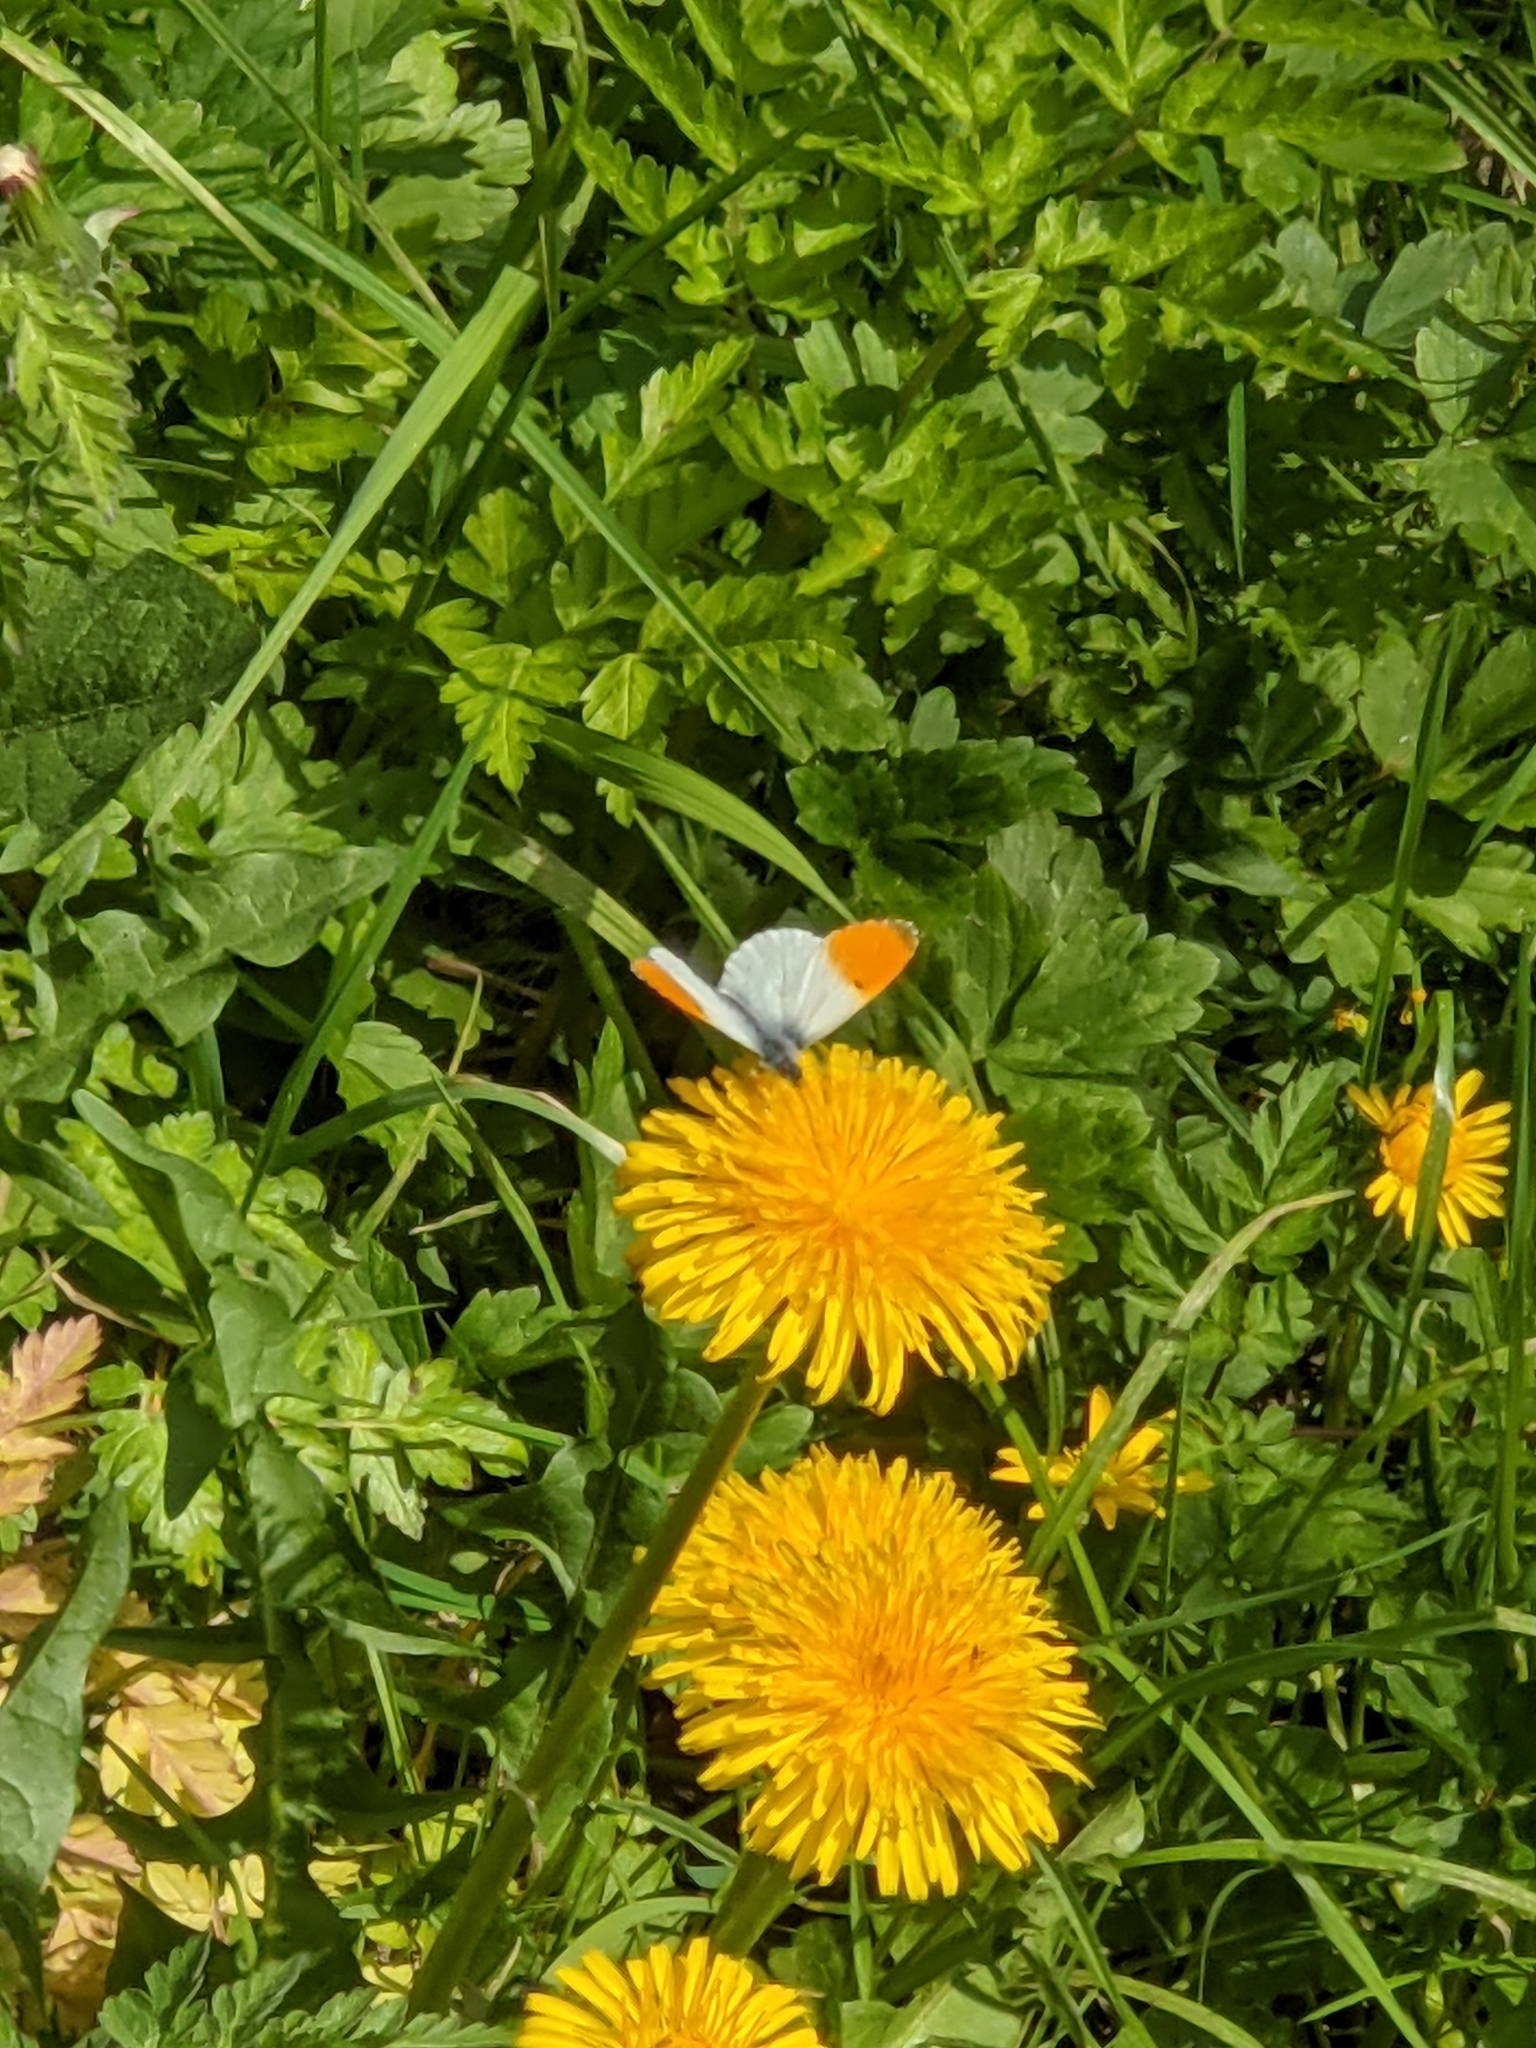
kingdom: Animalia
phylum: Arthropoda
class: Insecta
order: Lepidoptera
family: Pieridae
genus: Anthocharis
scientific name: Anthocharis cardamines
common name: Orange-tip
